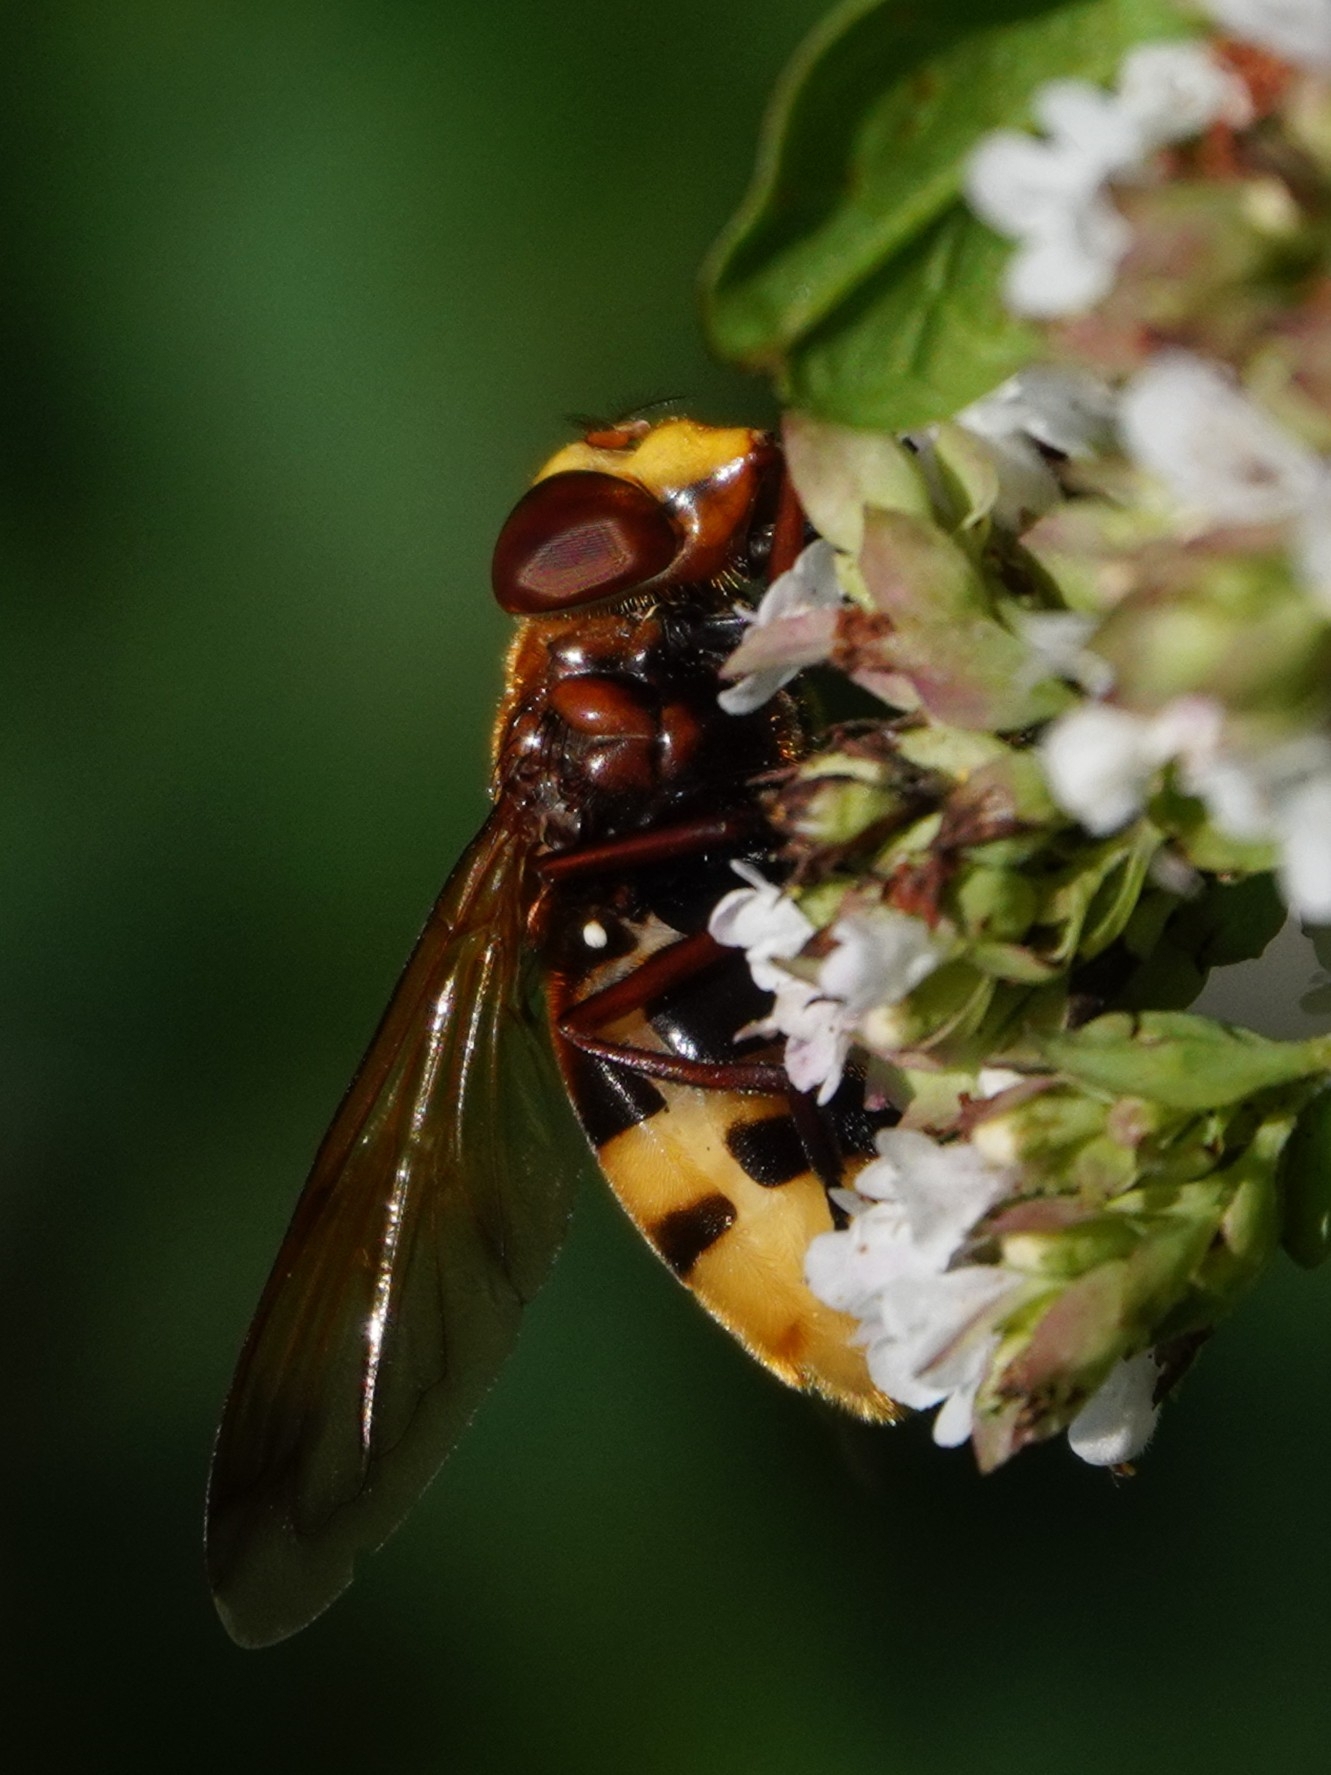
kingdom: Animalia
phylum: Arthropoda
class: Insecta
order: Diptera
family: Syrphidae
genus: Volucella
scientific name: Volucella zonaria
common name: Hornet hoverfly
